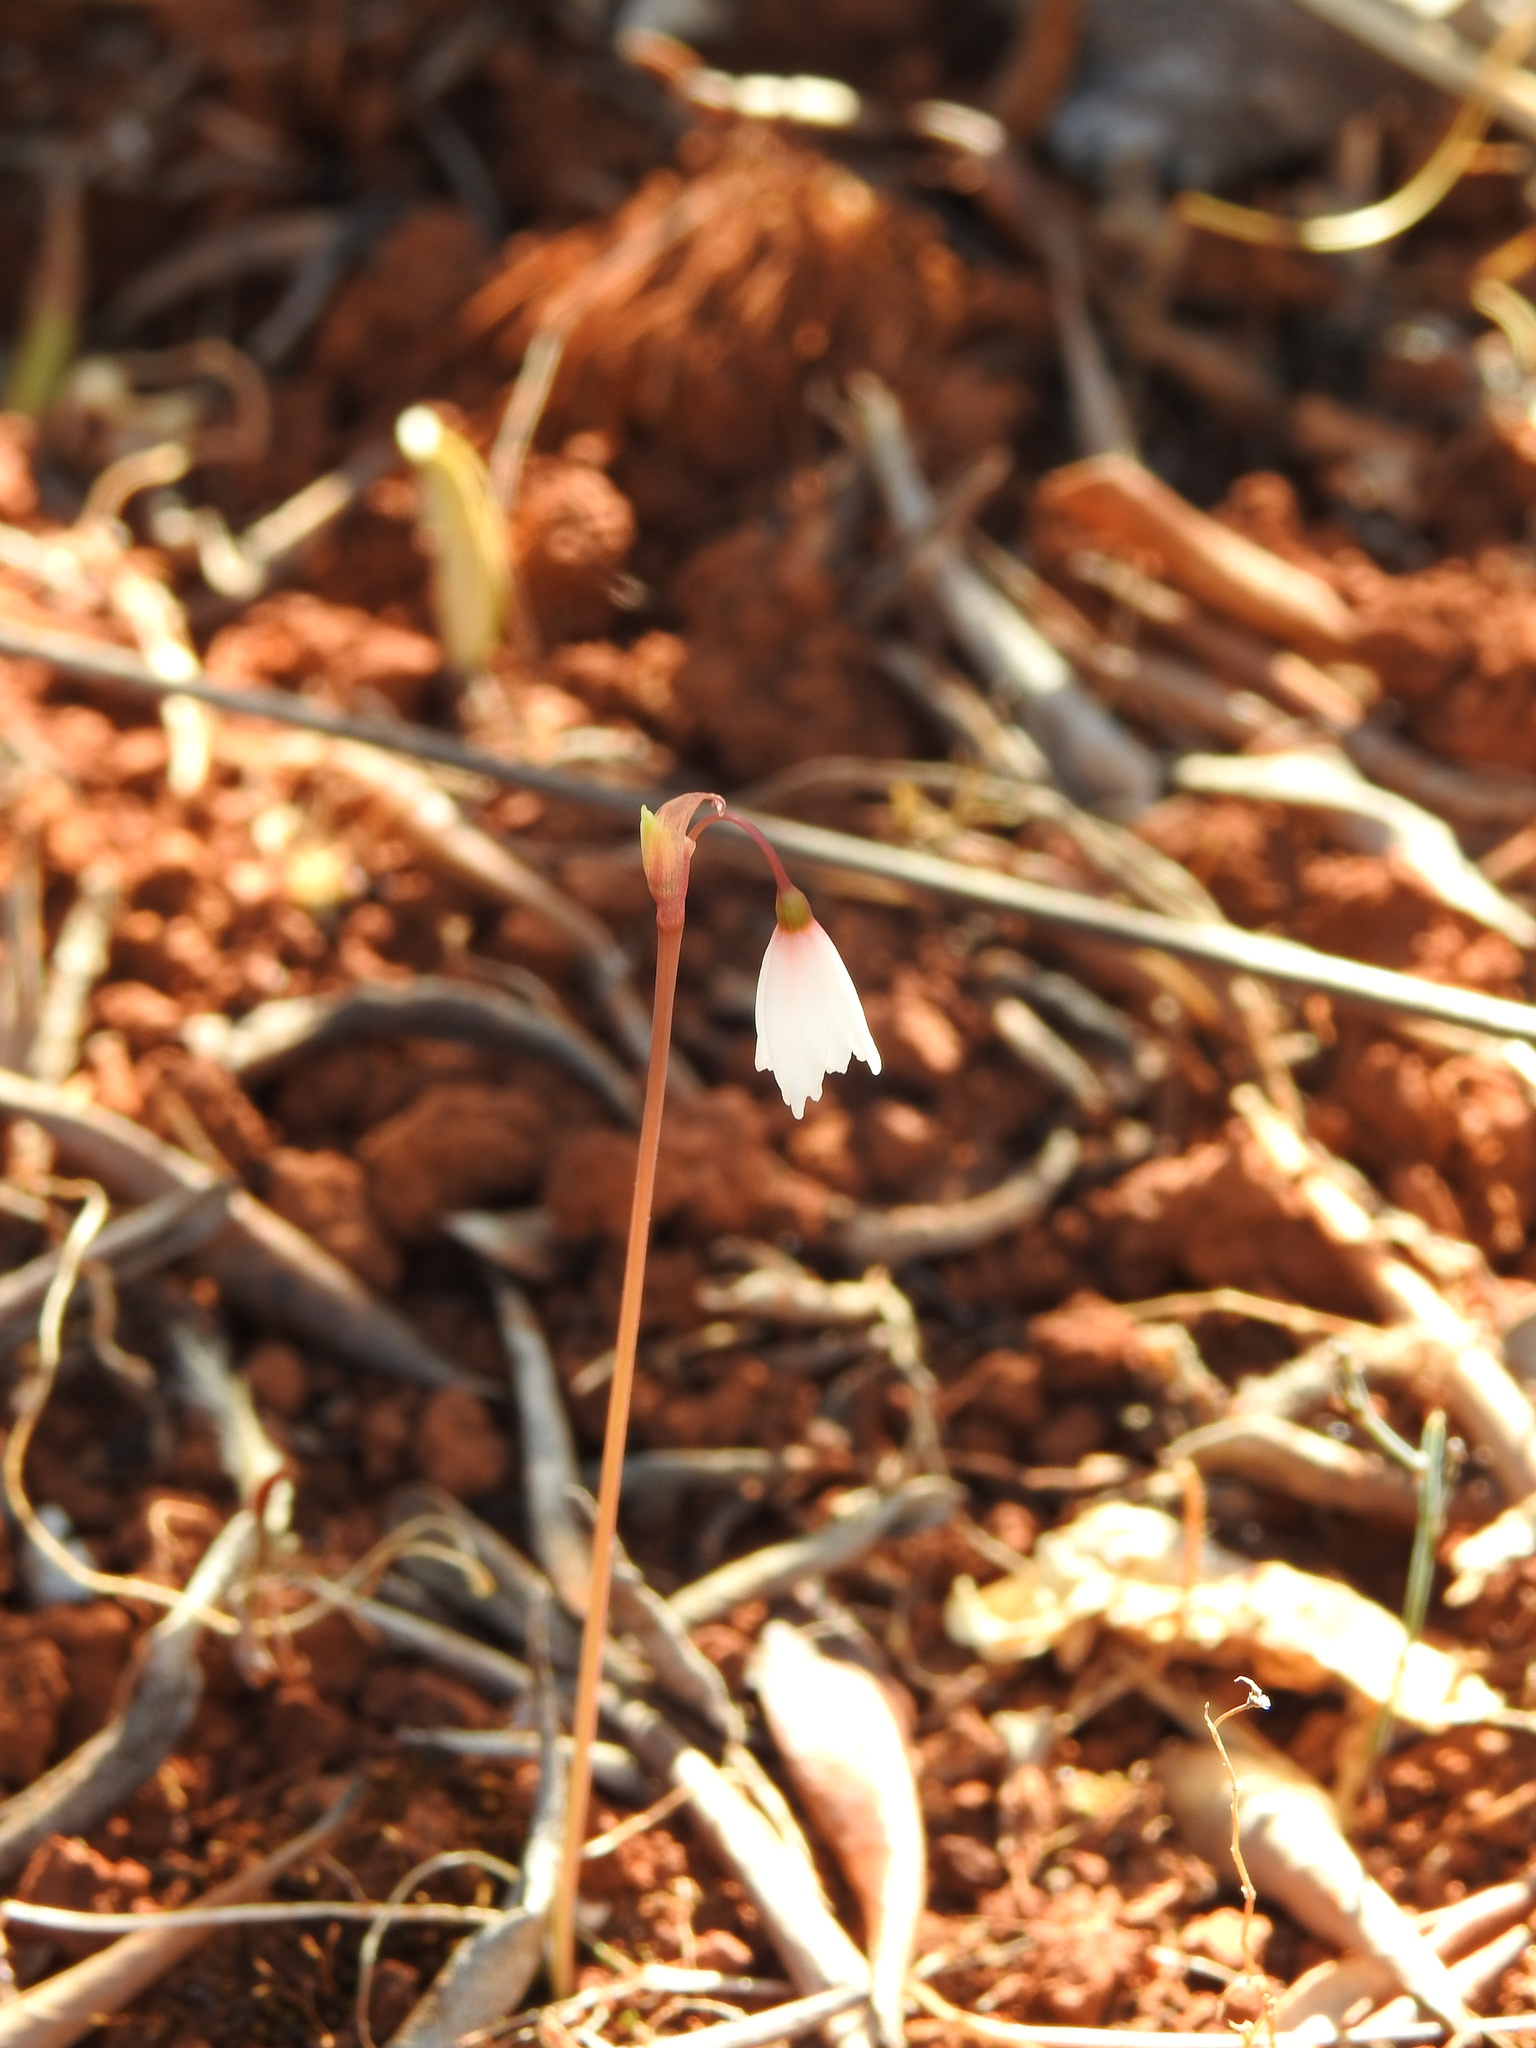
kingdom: Plantae
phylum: Tracheophyta
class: Liliopsida
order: Asparagales
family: Amaryllidaceae
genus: Acis
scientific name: Acis autumnalis
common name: Autumn snowflake
